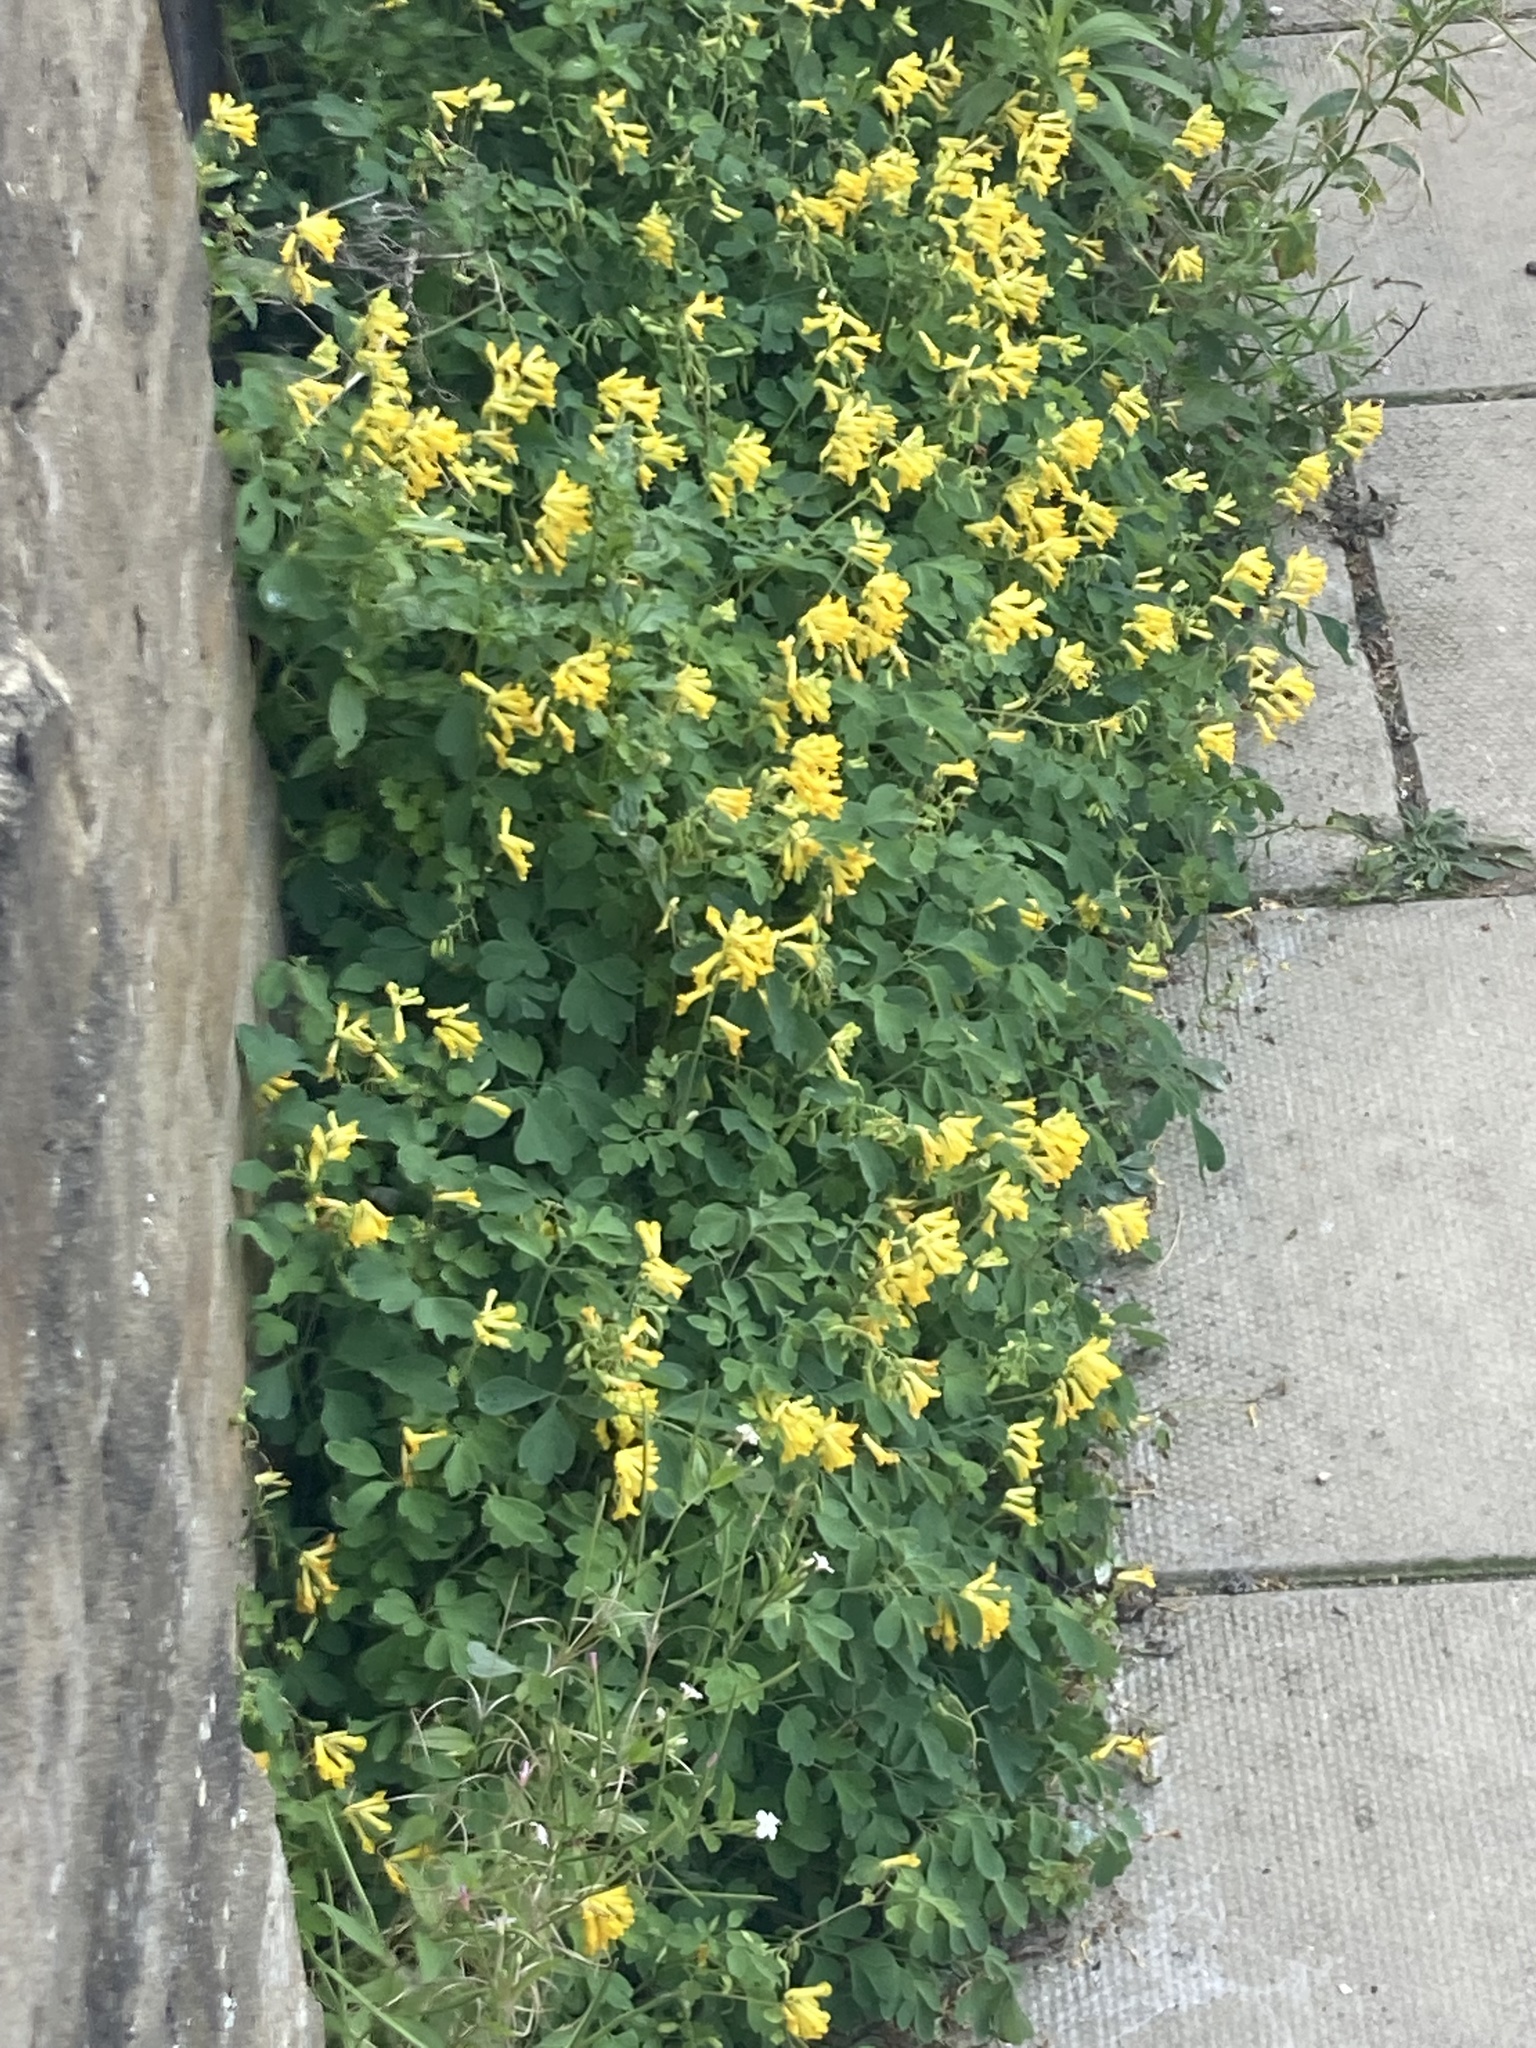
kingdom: Plantae
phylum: Tracheophyta
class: Magnoliopsida
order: Ranunculales
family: Papaveraceae
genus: Pseudofumaria
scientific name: Pseudofumaria lutea
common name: Yellow corydalis
